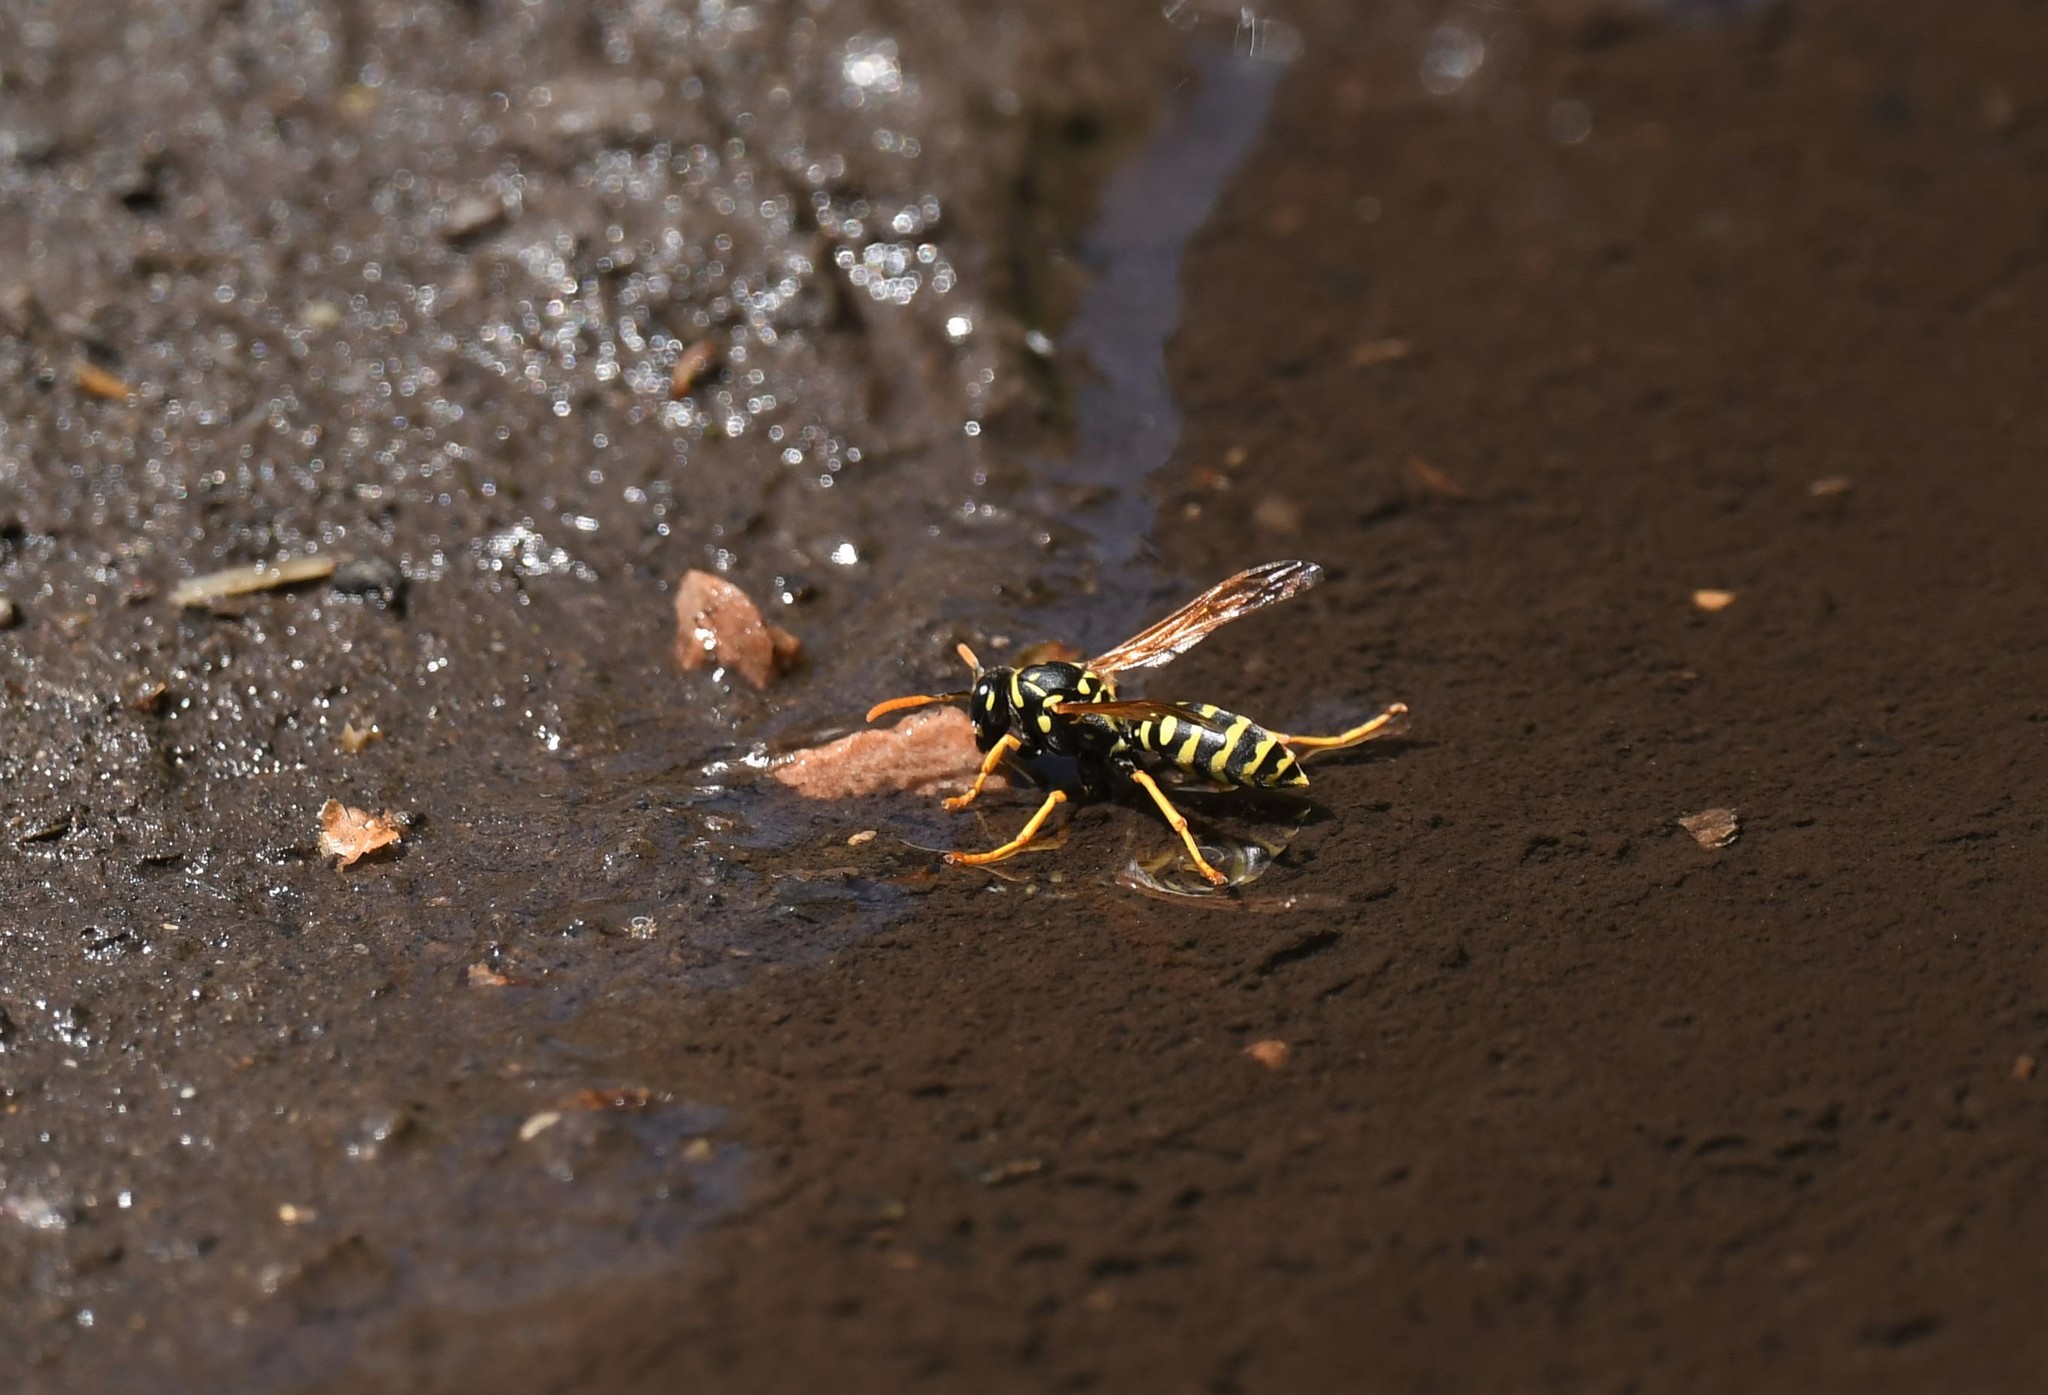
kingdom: Animalia
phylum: Arthropoda
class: Insecta
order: Hymenoptera
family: Eumenidae
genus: Polistes
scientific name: Polistes dominula
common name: Paper wasp
